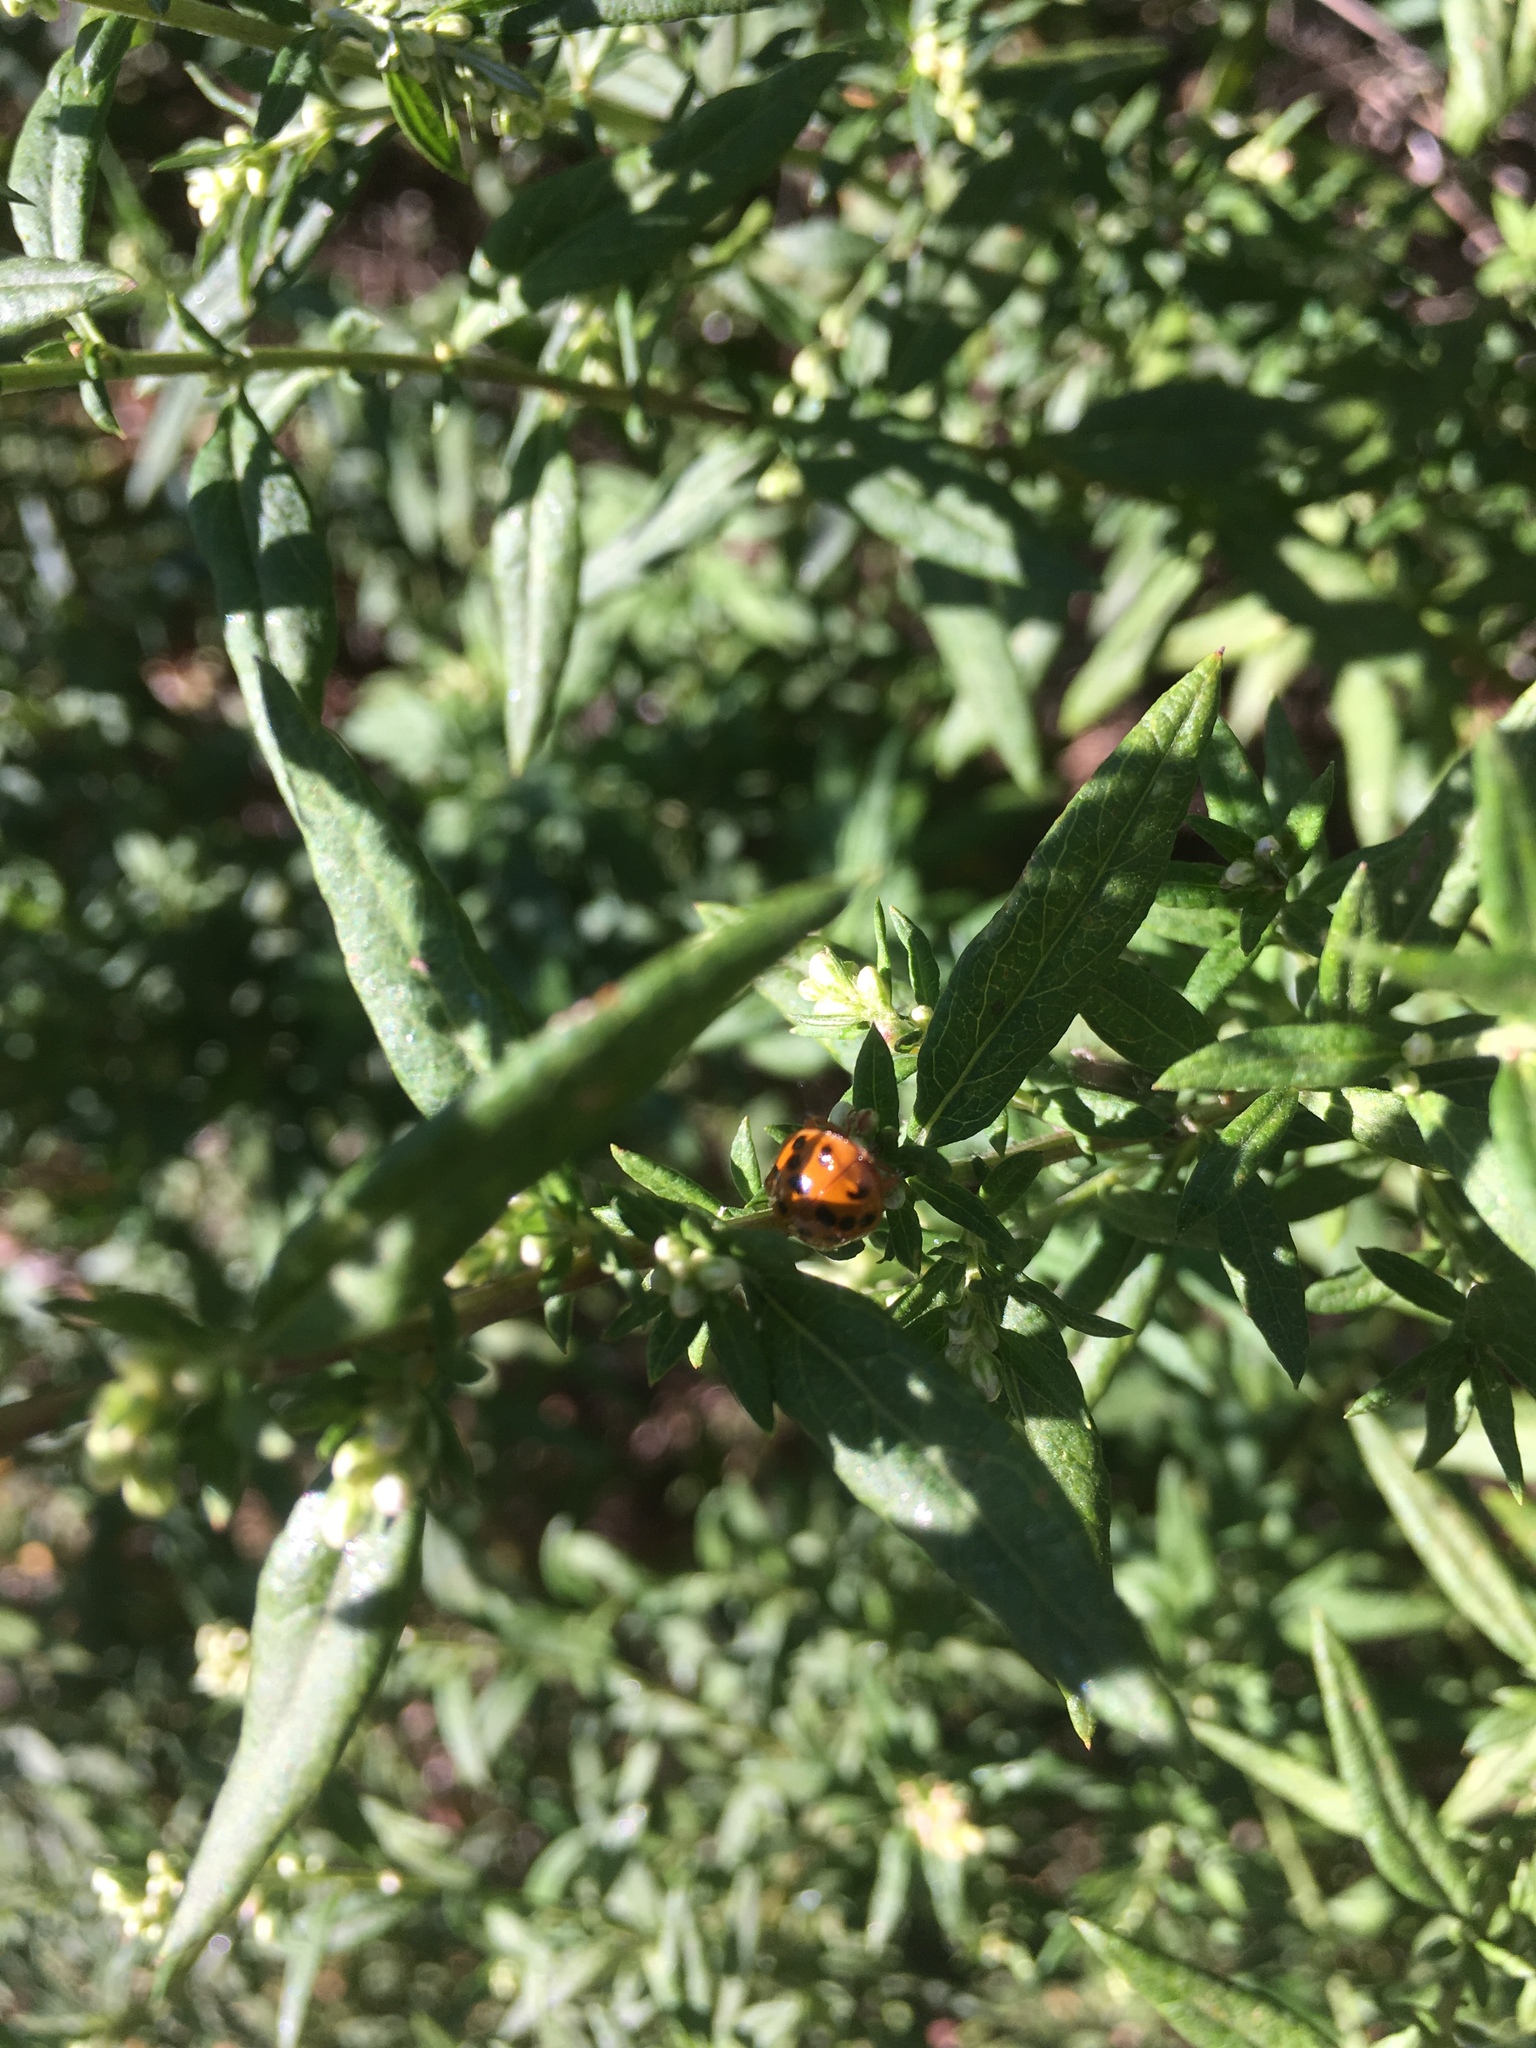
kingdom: Animalia
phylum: Arthropoda
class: Insecta
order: Coleoptera
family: Coccinellidae
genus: Harmonia
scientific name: Harmonia axyridis
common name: Harlequin ladybird
